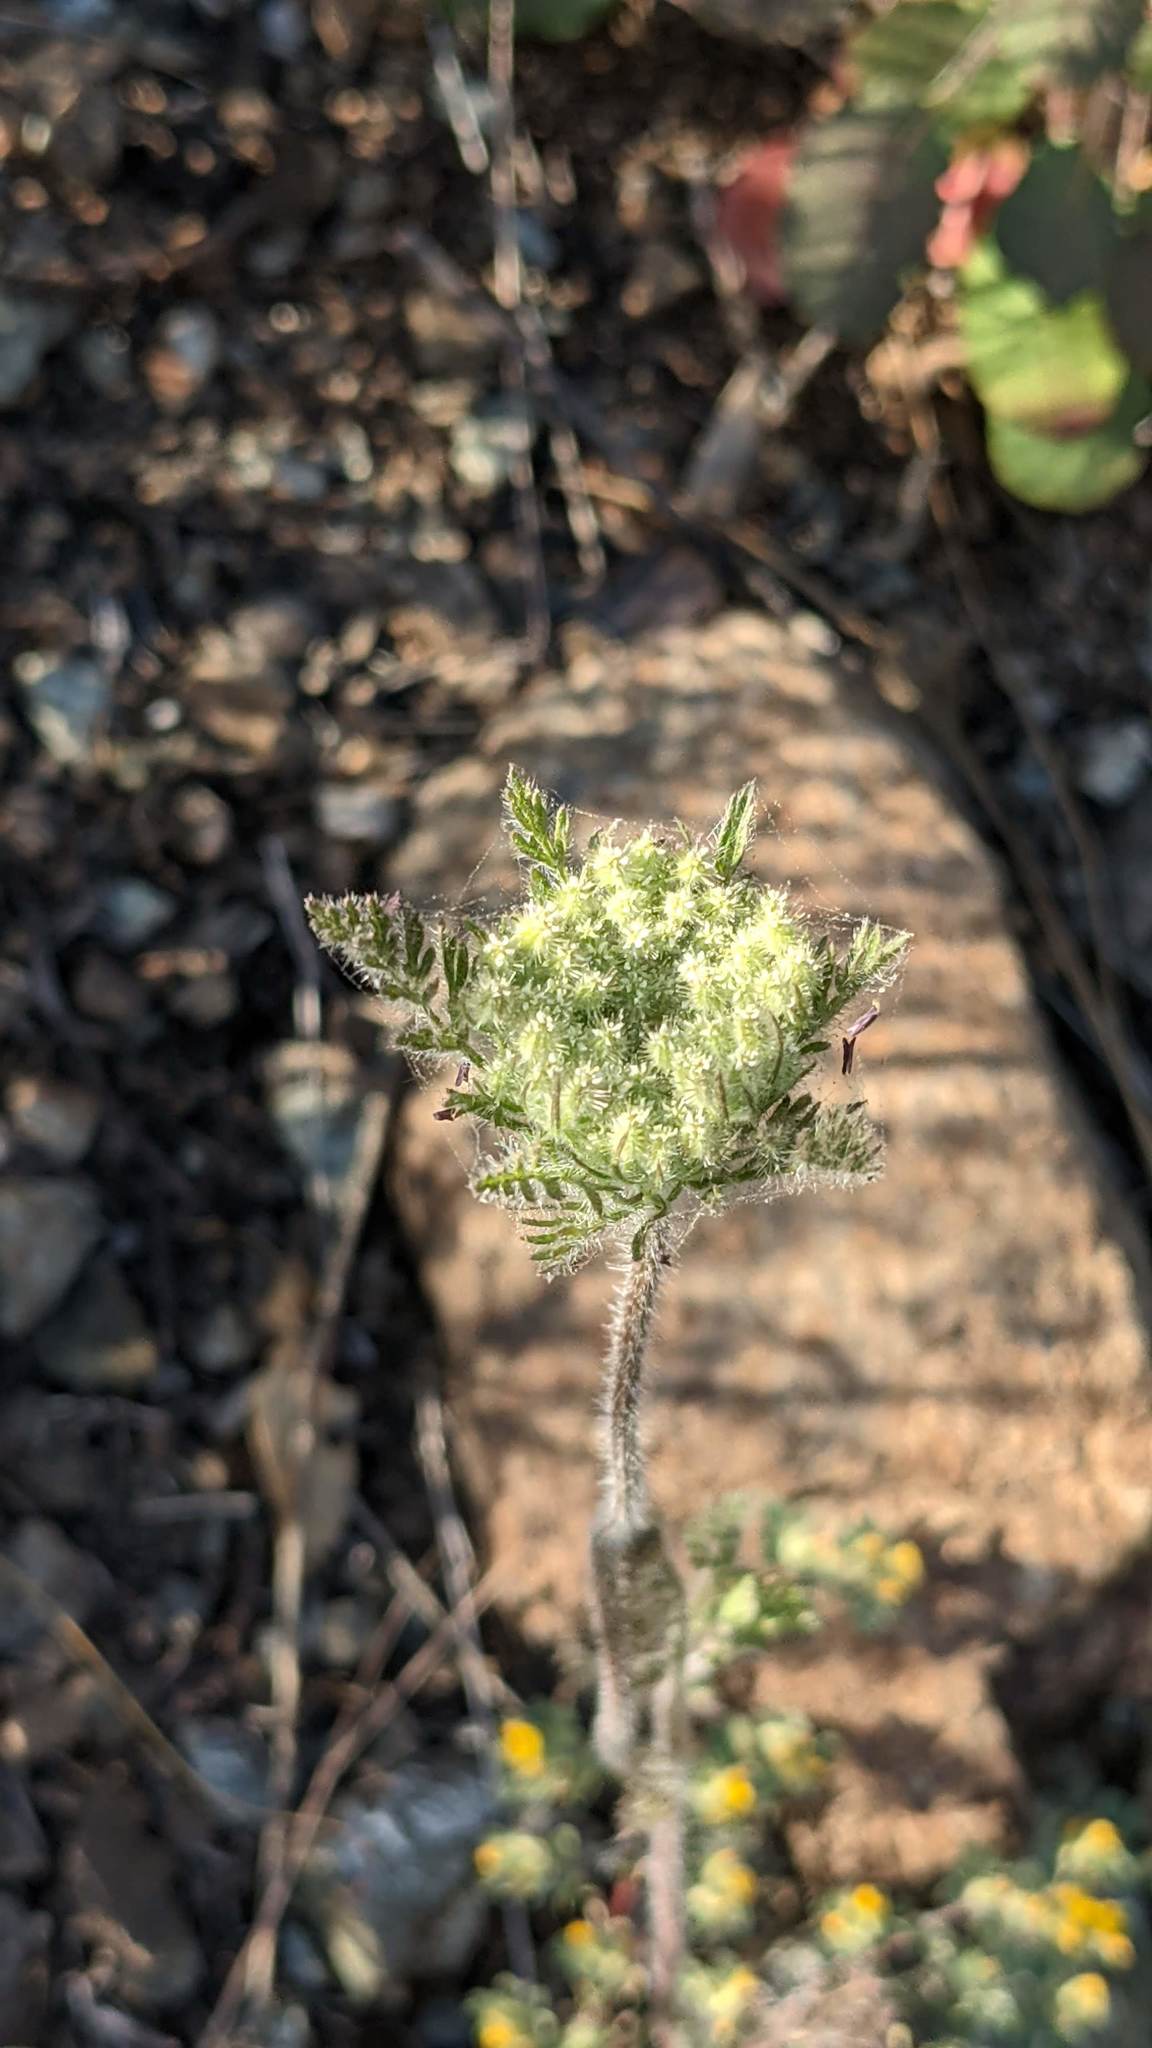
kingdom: Plantae
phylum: Tracheophyta
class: Magnoliopsida
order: Apiales
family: Apiaceae
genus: Daucus
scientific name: Daucus pusillus
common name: Southwest wild carrot
